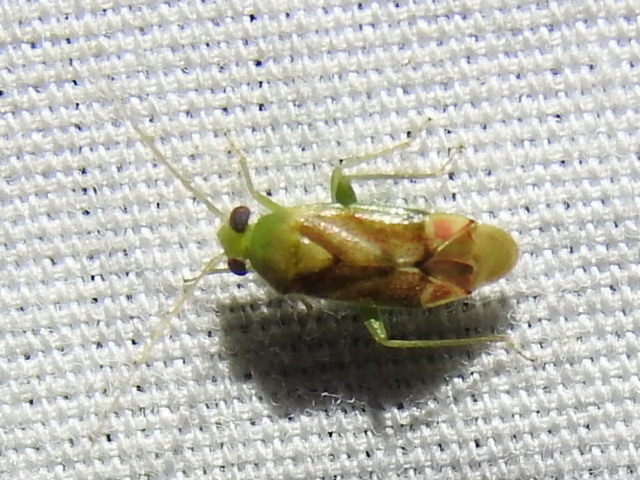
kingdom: Animalia
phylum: Arthropoda
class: Insecta
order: Hemiptera
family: Miridae
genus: Dichrooscytus
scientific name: Dichrooscytus
